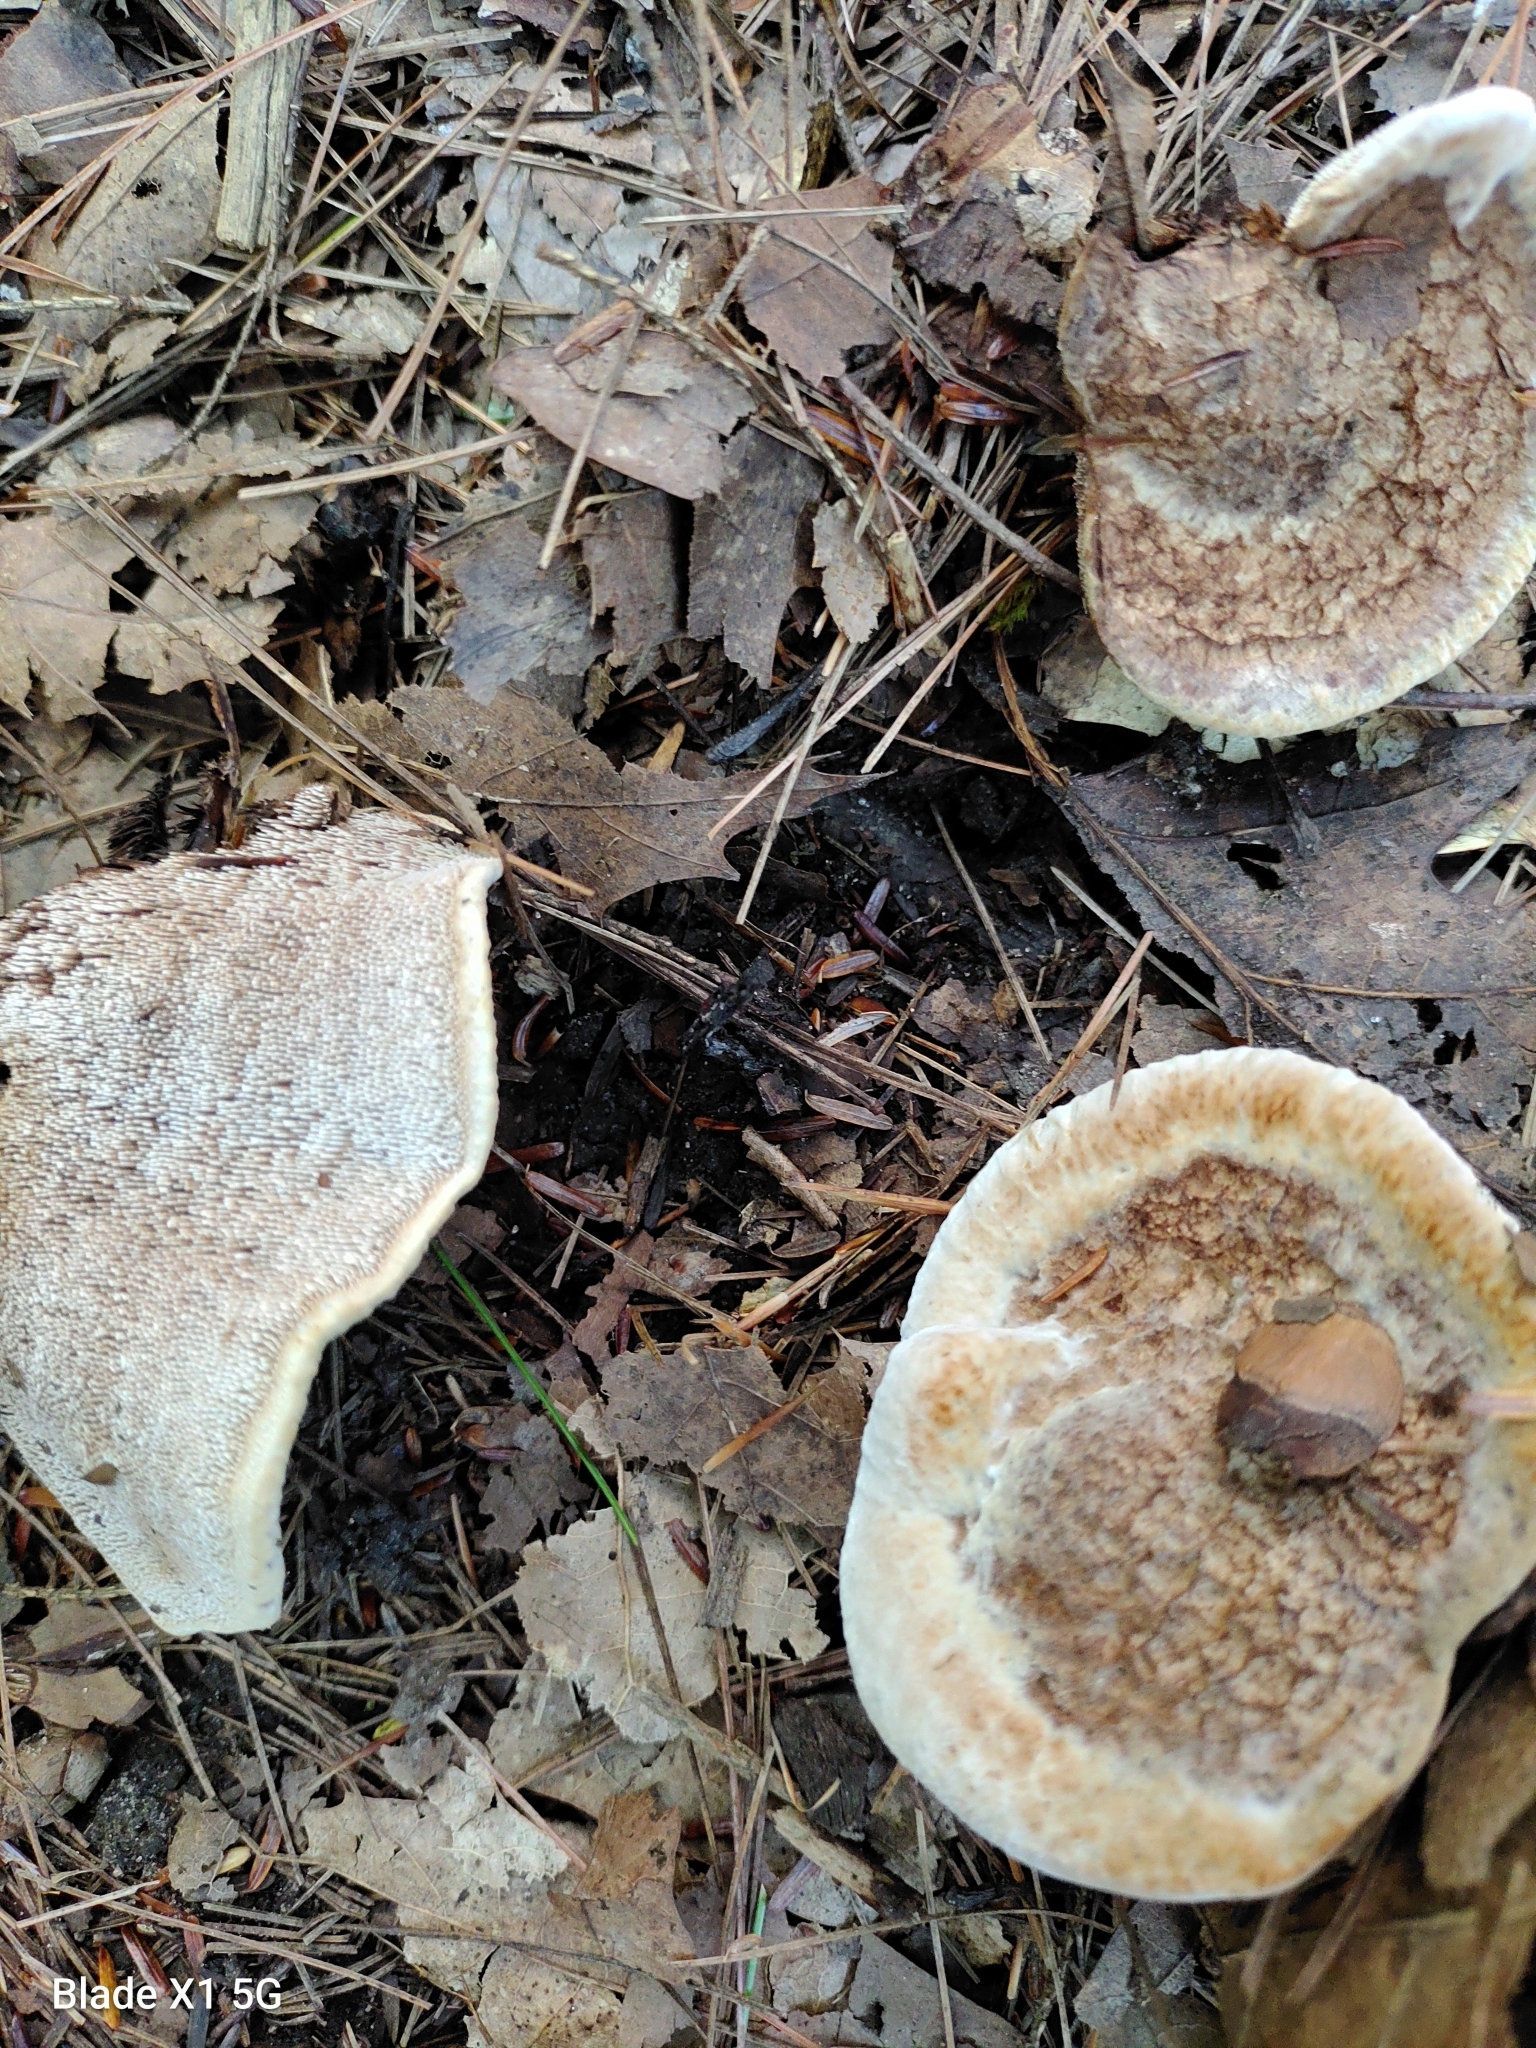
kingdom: Fungi
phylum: Basidiomycota
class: Agaricomycetes
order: Thelephorales
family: Bankeraceae
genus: Hydnellum
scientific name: Hydnellum aurantiacum
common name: Orange tooth
